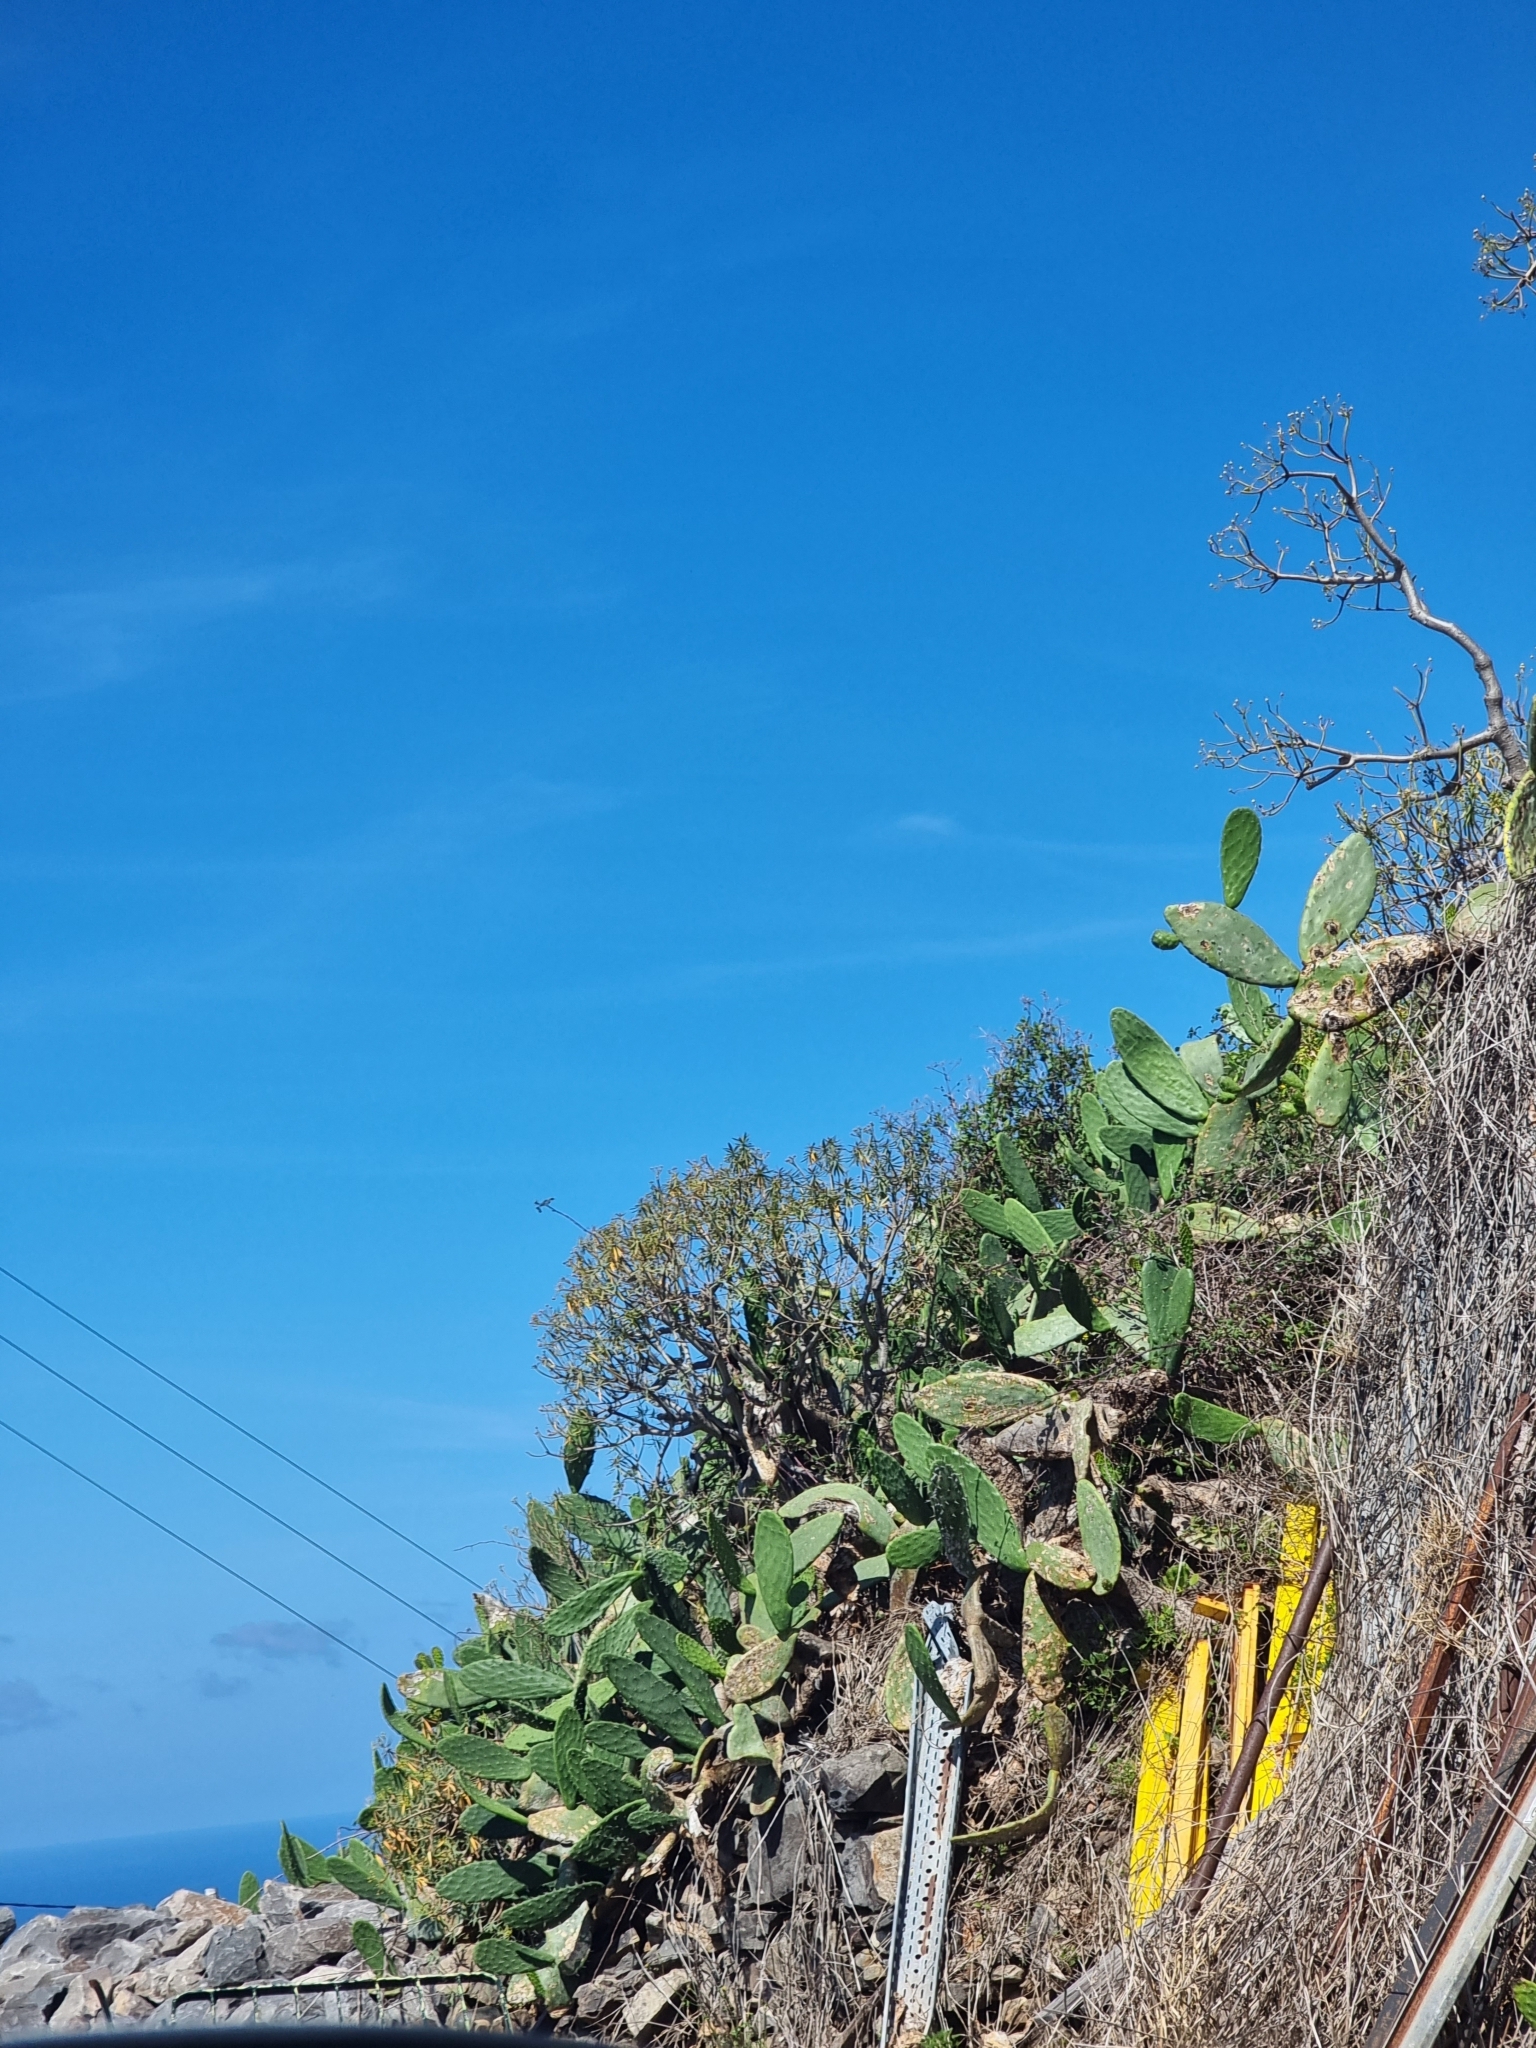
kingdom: Plantae
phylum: Tracheophyta
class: Magnoliopsida
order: Malpighiales
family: Euphorbiaceae
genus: Euphorbia
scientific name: Euphorbia piscatoria
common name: Fish-stunning spurge
